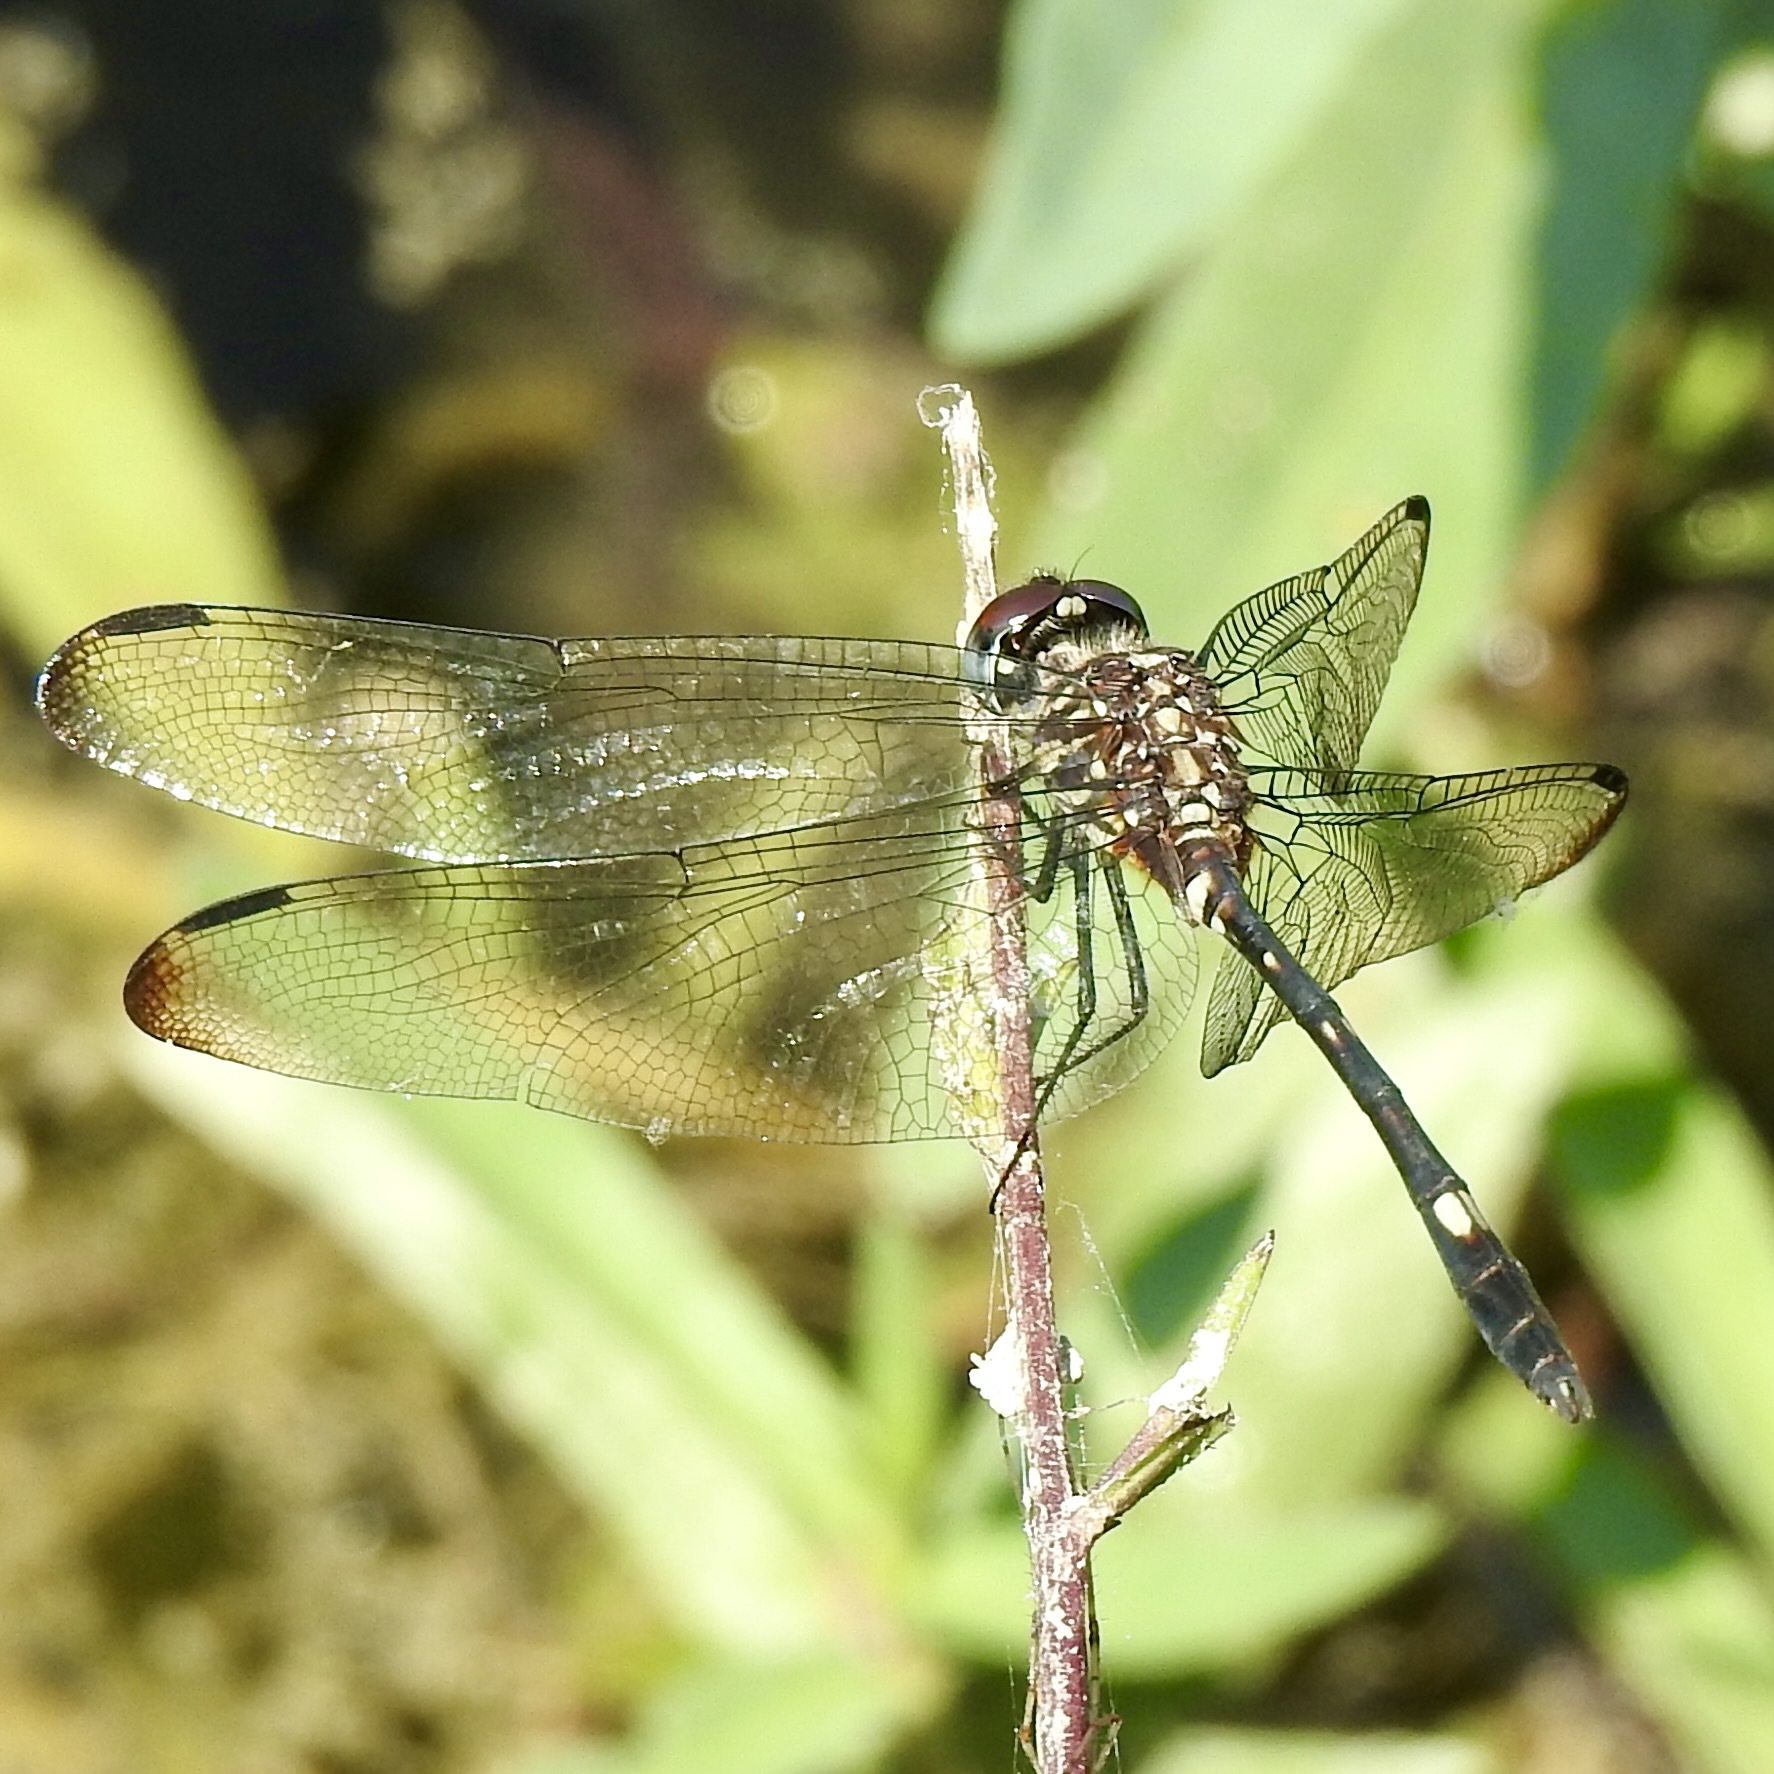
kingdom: Animalia
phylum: Arthropoda
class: Insecta
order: Odonata
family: Libellulidae
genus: Dythemis
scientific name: Dythemis velox
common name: Swift setwing
